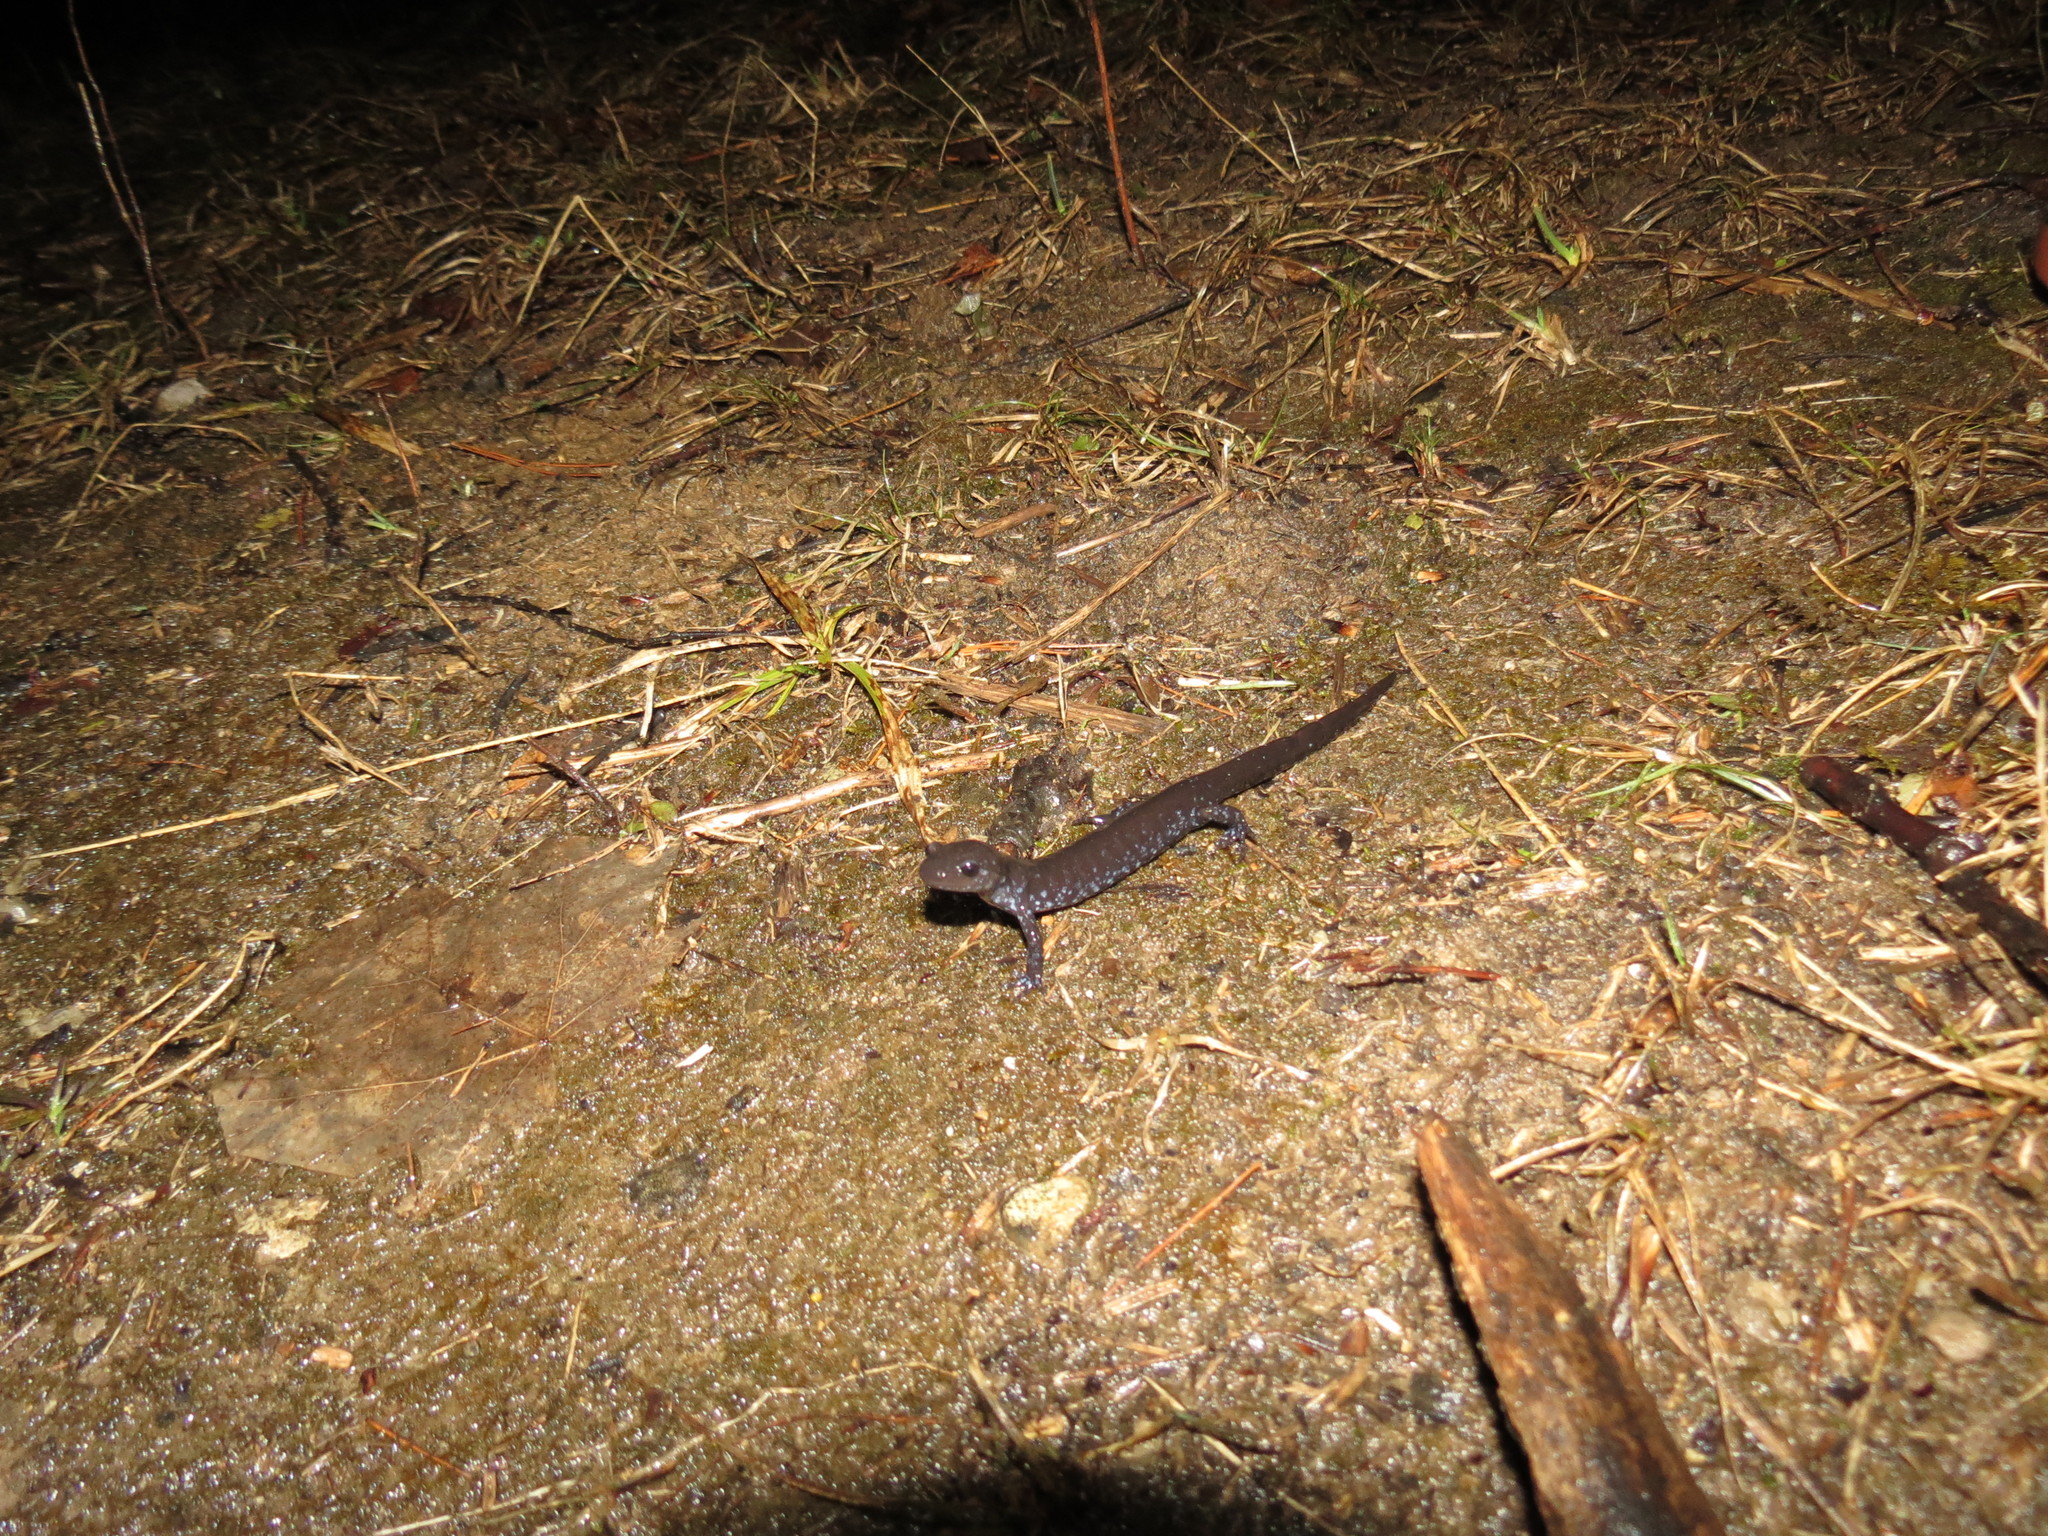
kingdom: Animalia
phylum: Chordata
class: Amphibia
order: Caudata
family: Ambystomatidae
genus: Ambystoma
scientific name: Ambystoma
